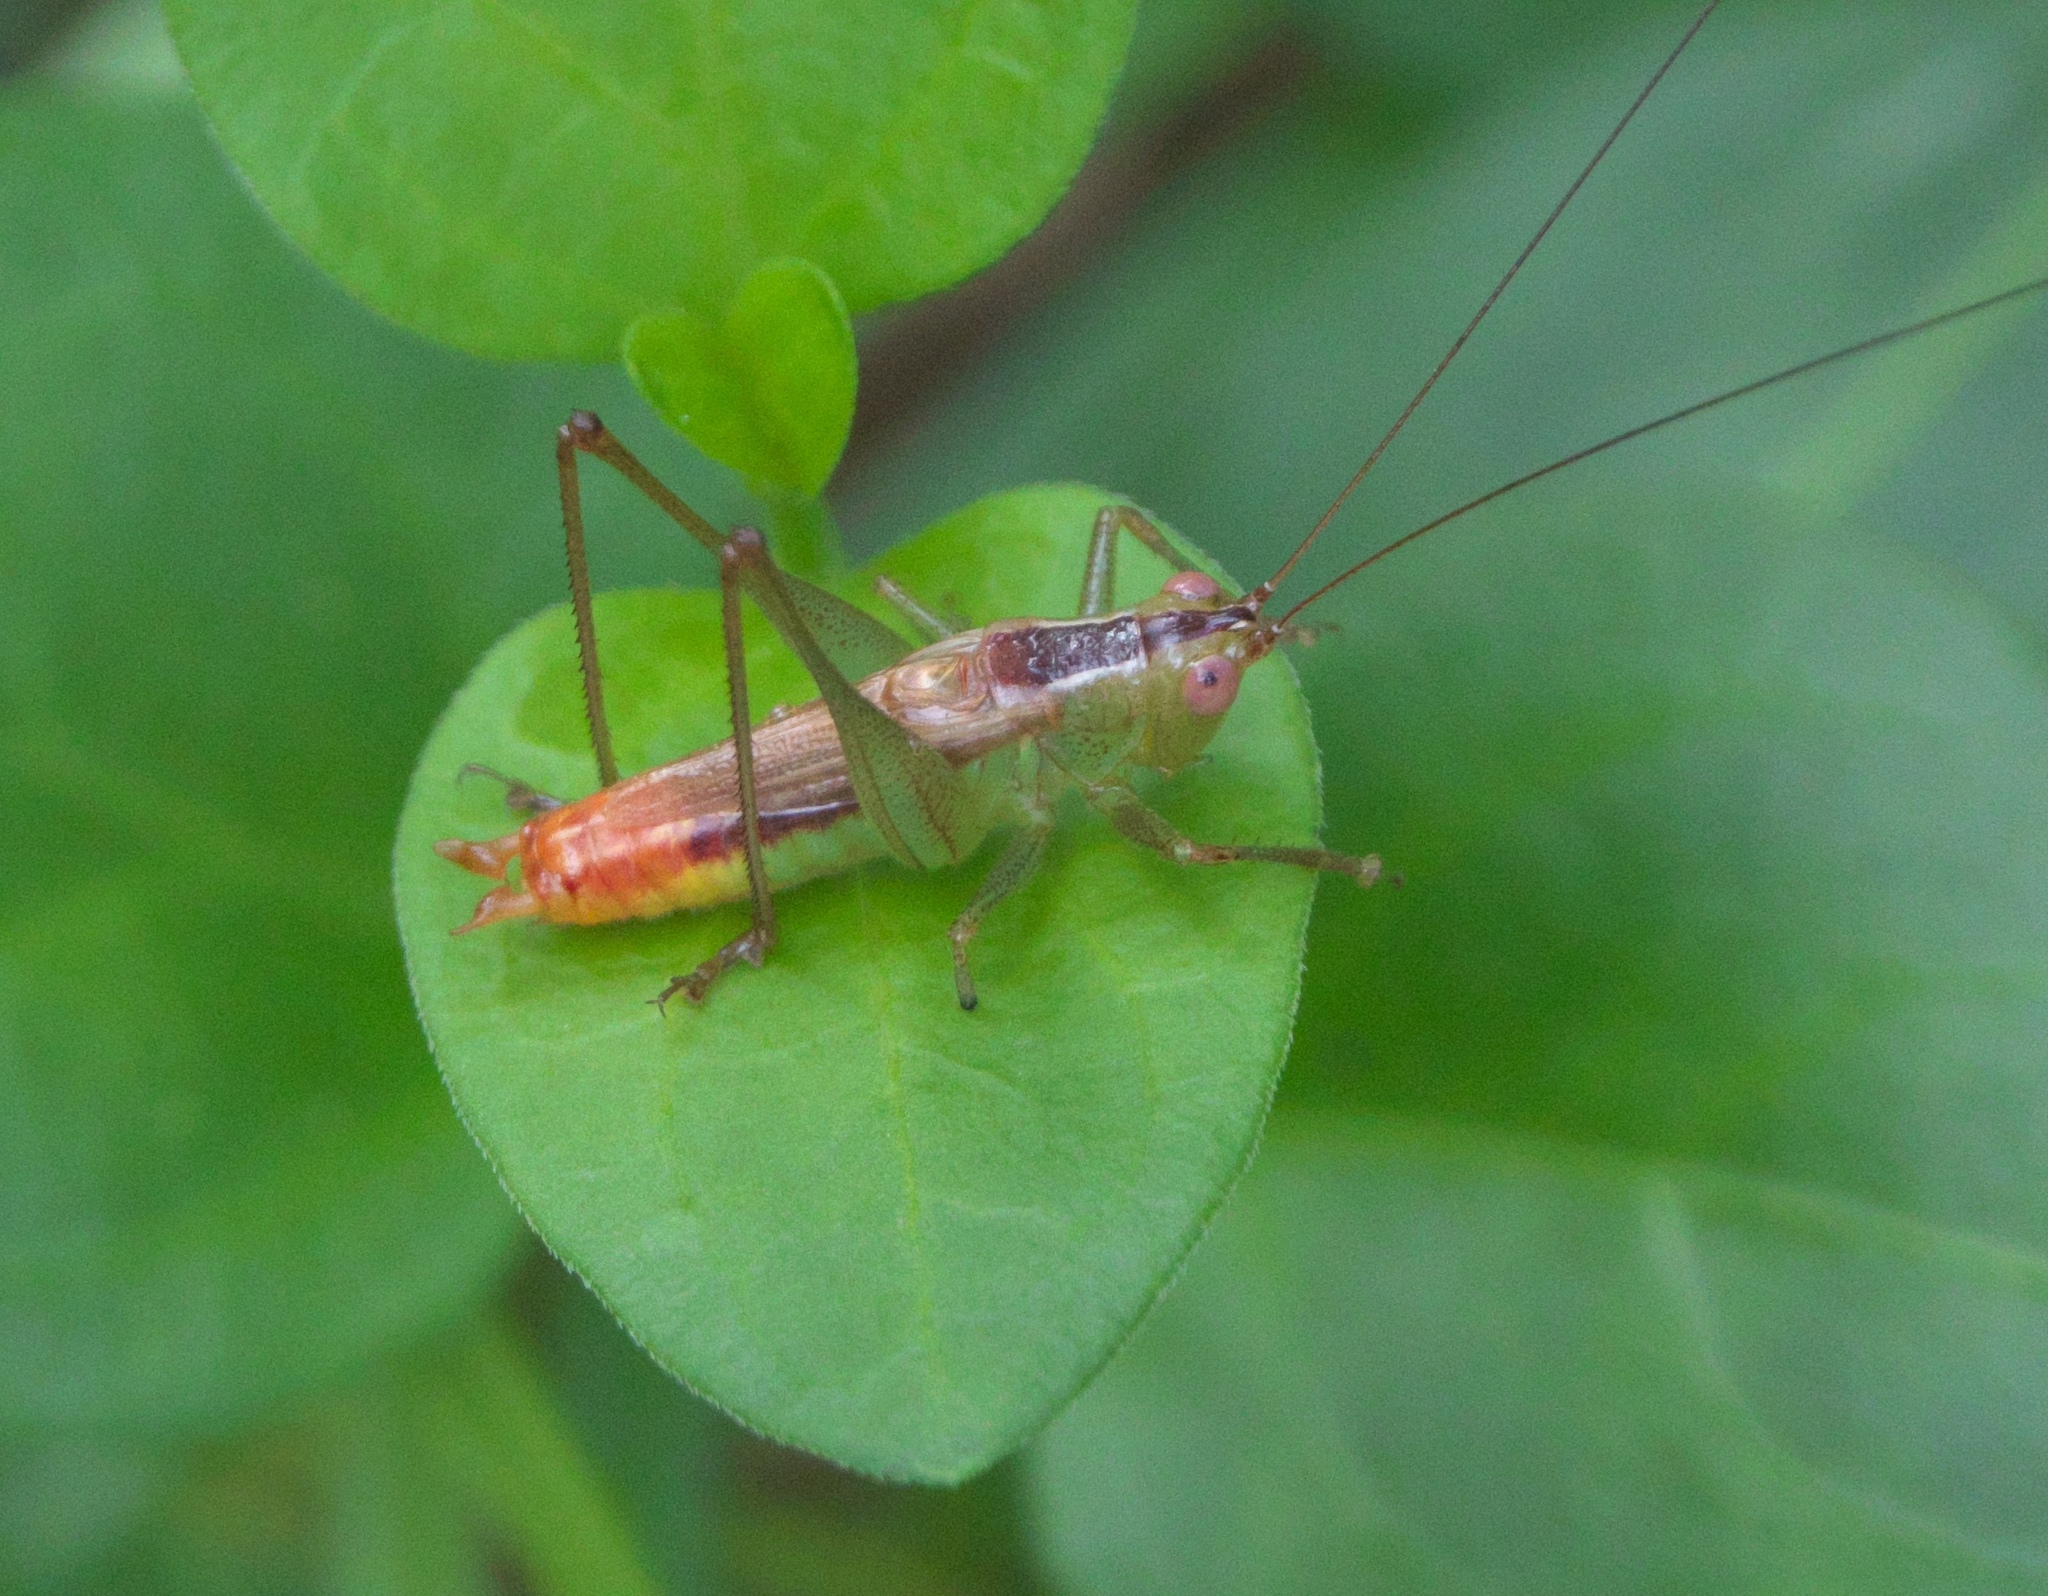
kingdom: Animalia
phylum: Arthropoda
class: Insecta
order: Orthoptera
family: Tettigoniidae
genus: Conocephalus
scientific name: Conocephalus brevipennis
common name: Short-winged meadow katydid
